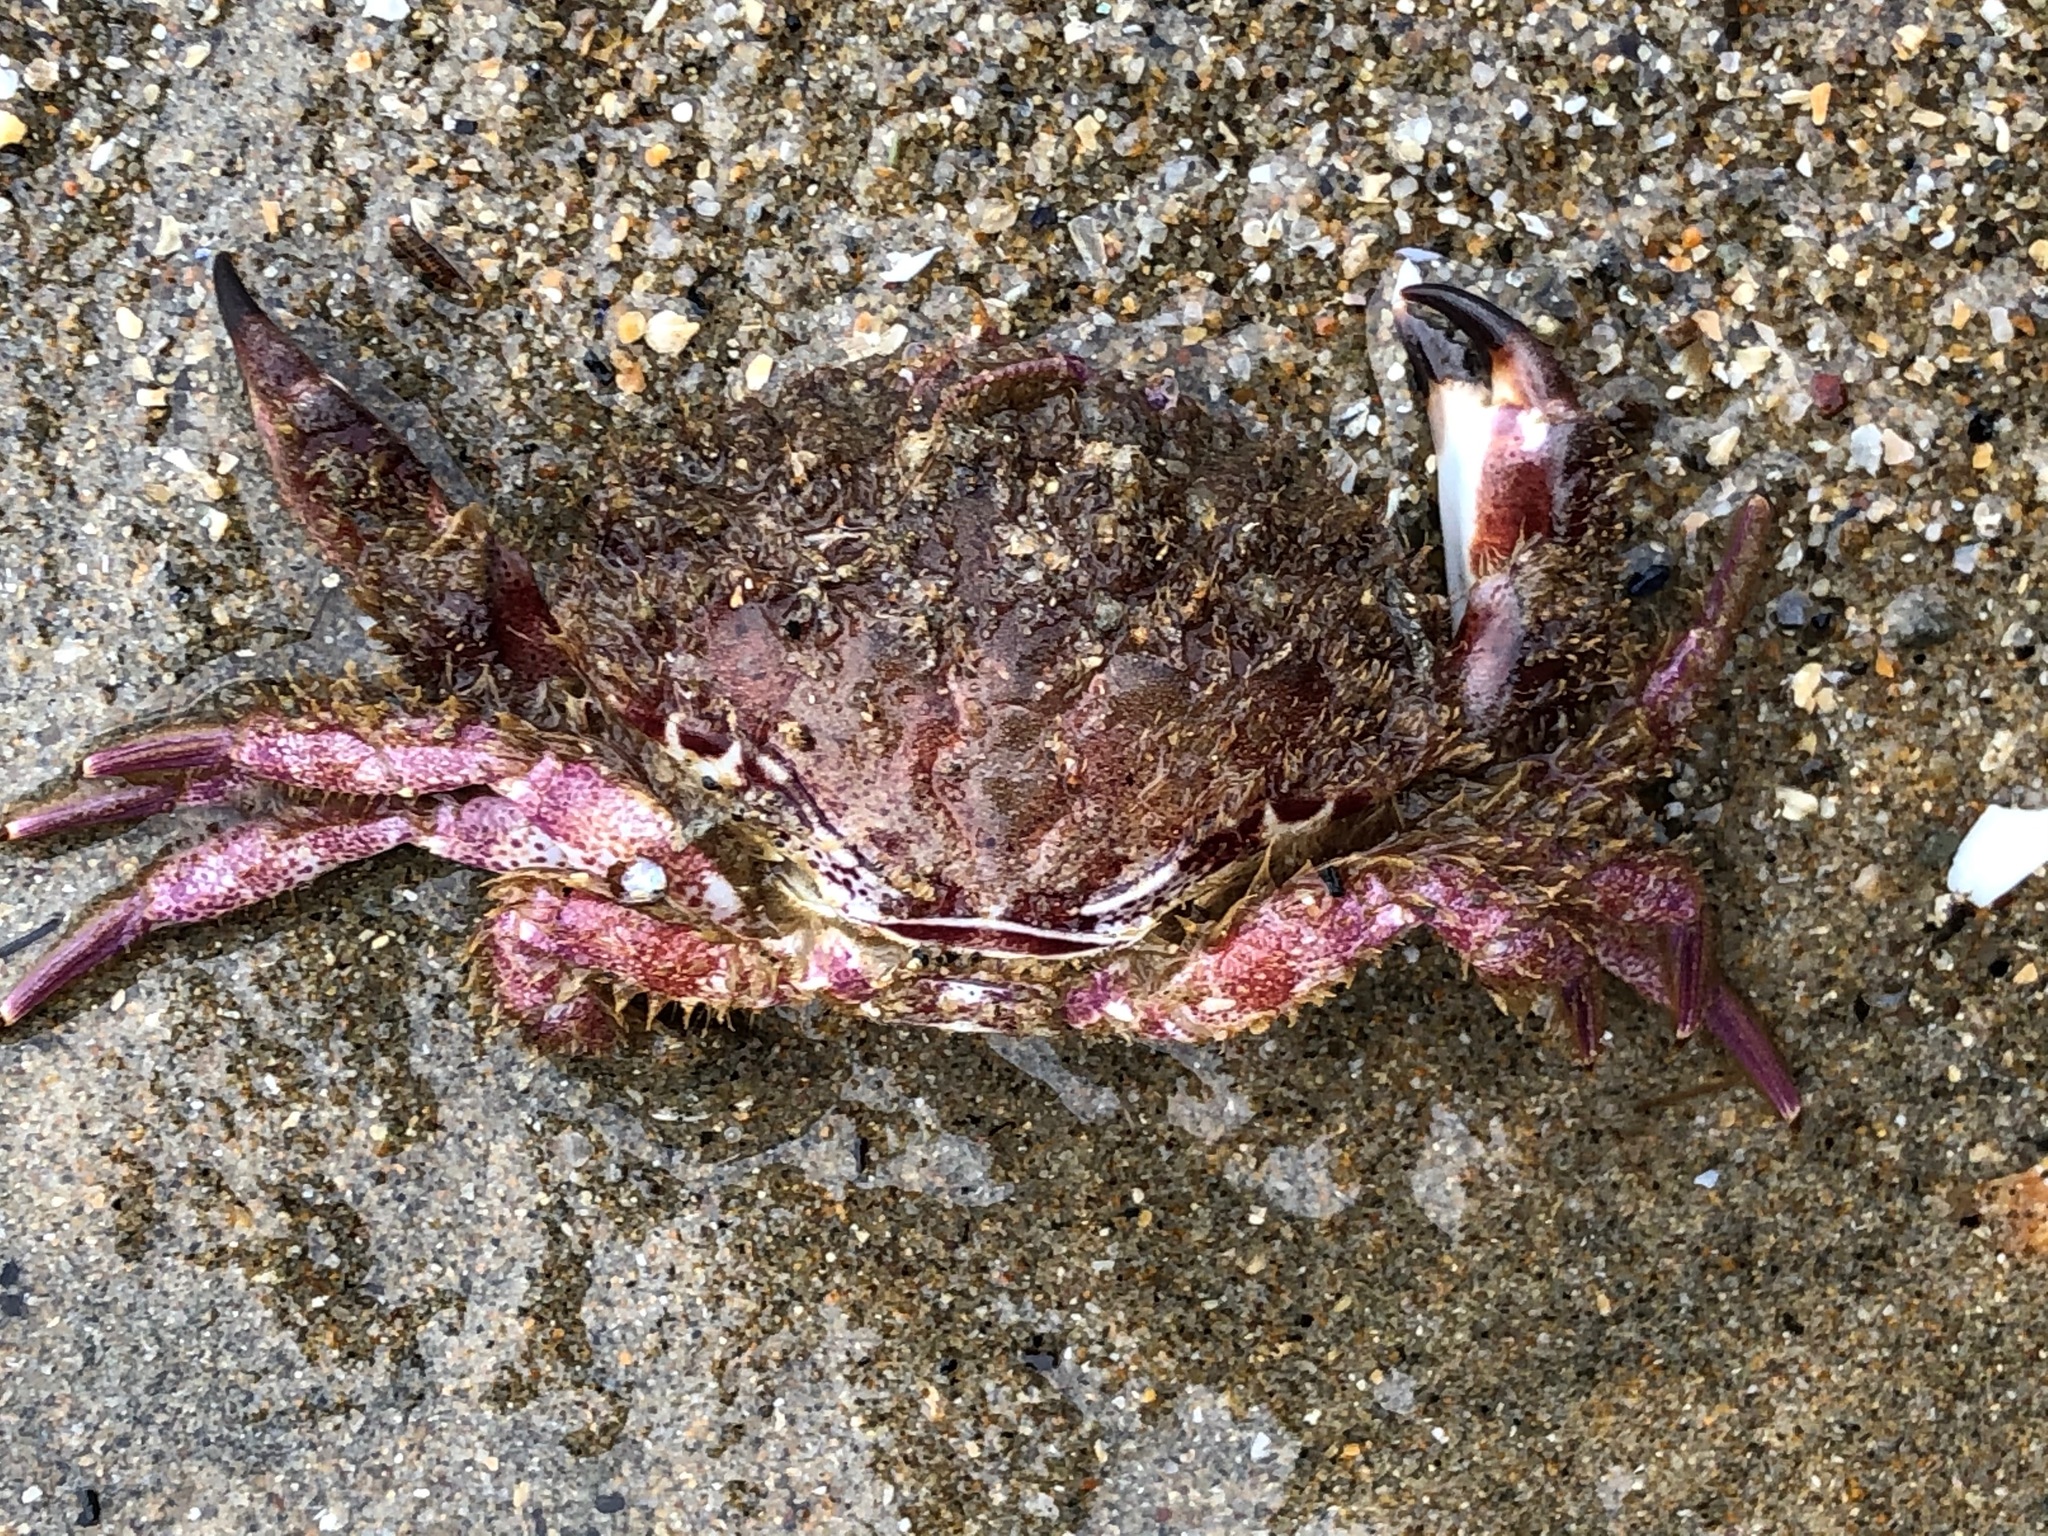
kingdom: Animalia
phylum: Arthropoda
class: Malacostraca
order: Decapoda
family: Cancridae
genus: Romaleon
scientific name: Romaleon antennarium
